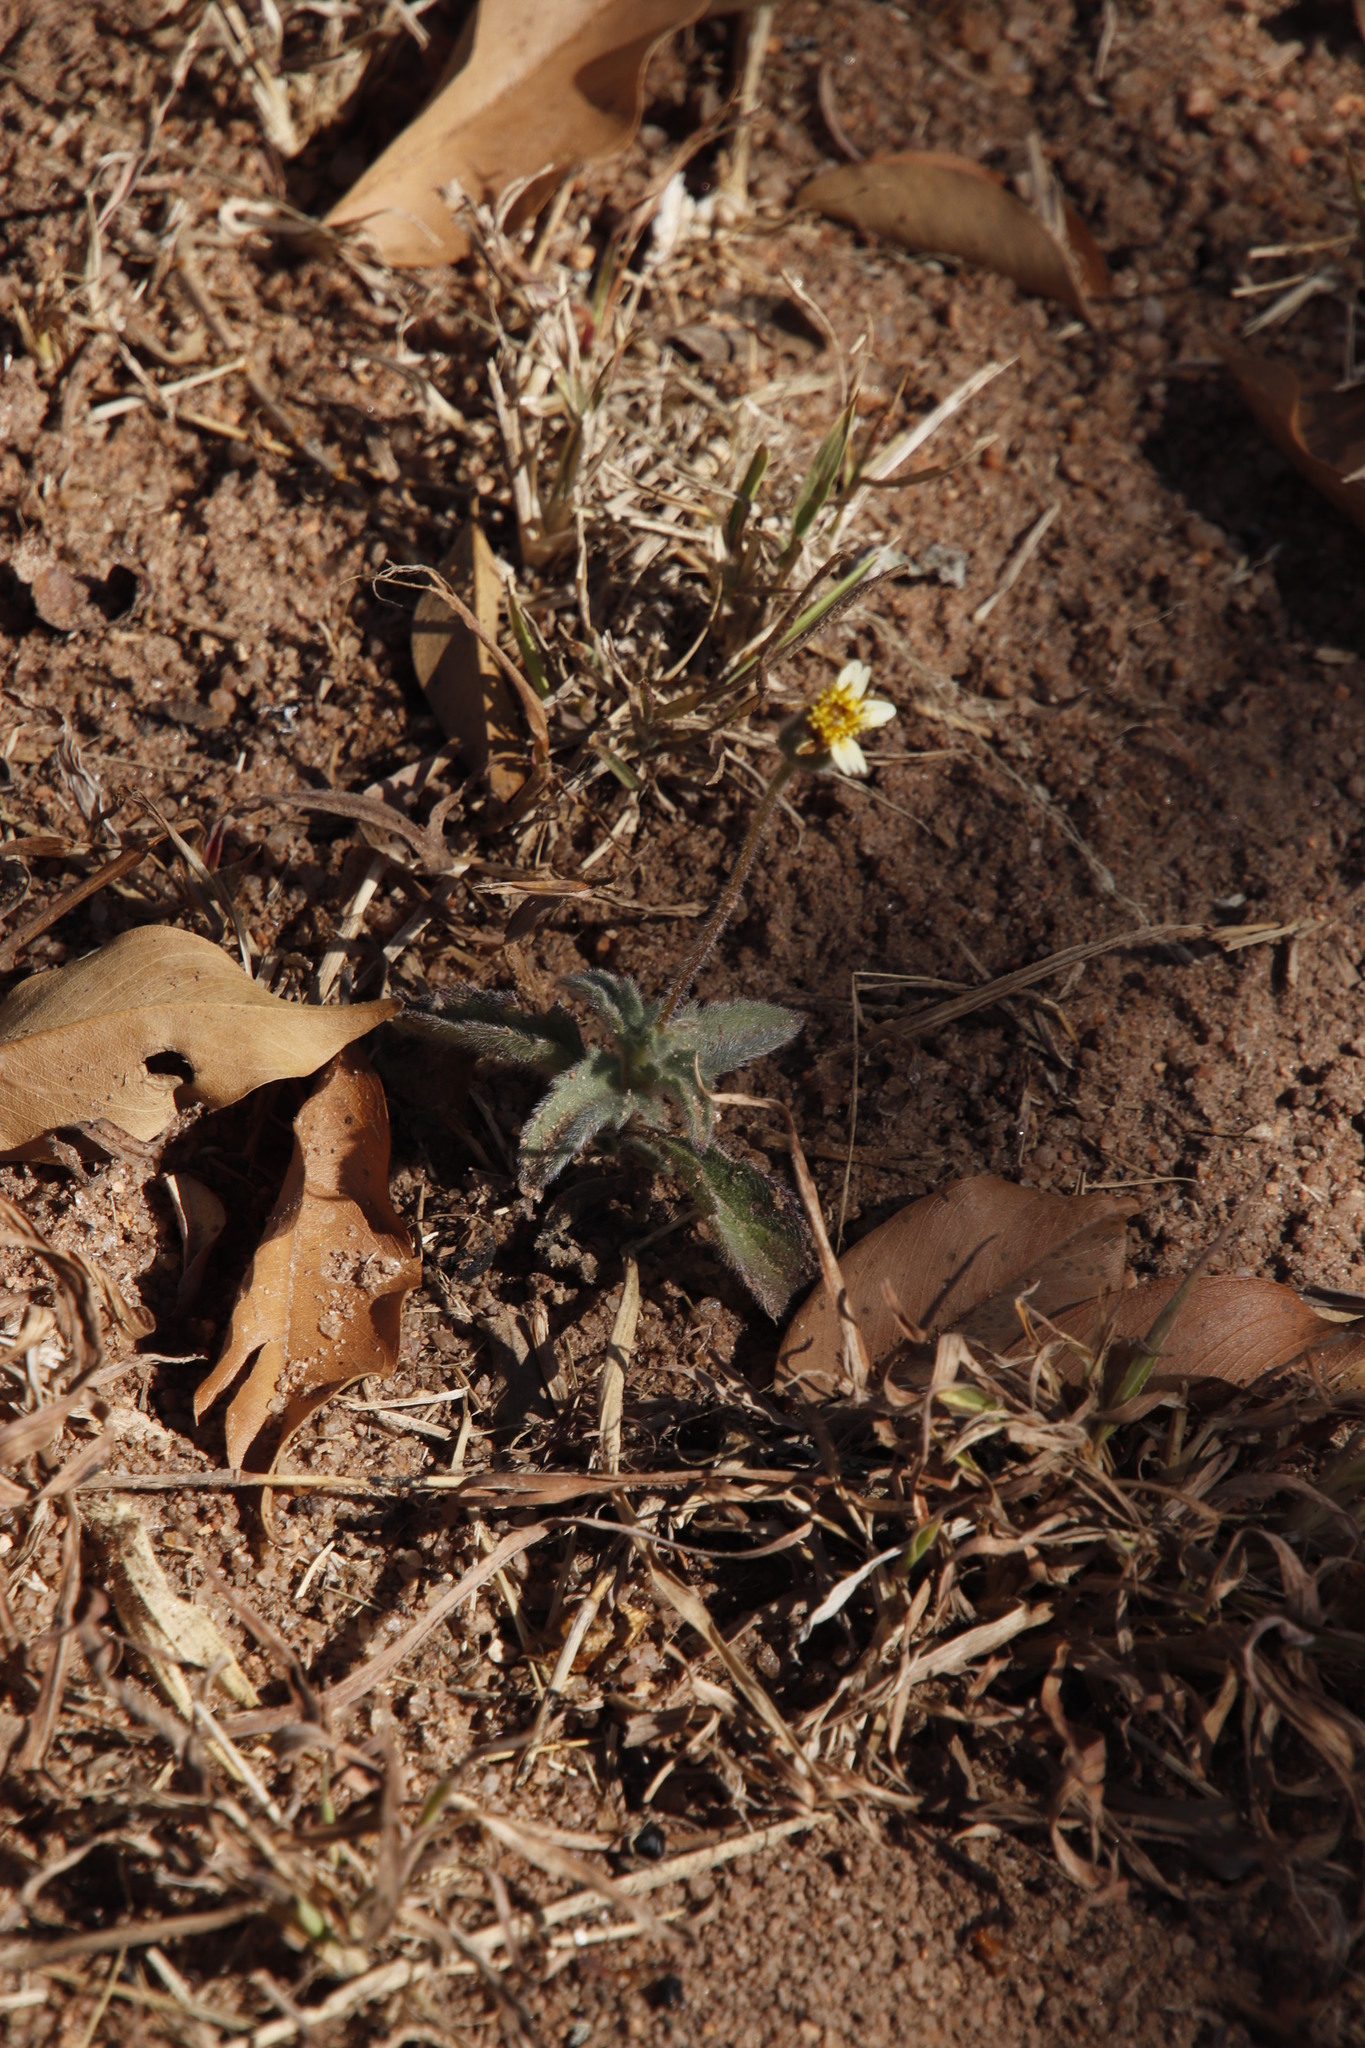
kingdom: Plantae
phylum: Tracheophyta
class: Magnoliopsida
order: Asterales
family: Asteraceae
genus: Tridax
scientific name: Tridax procumbens
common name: Coatbuttons
